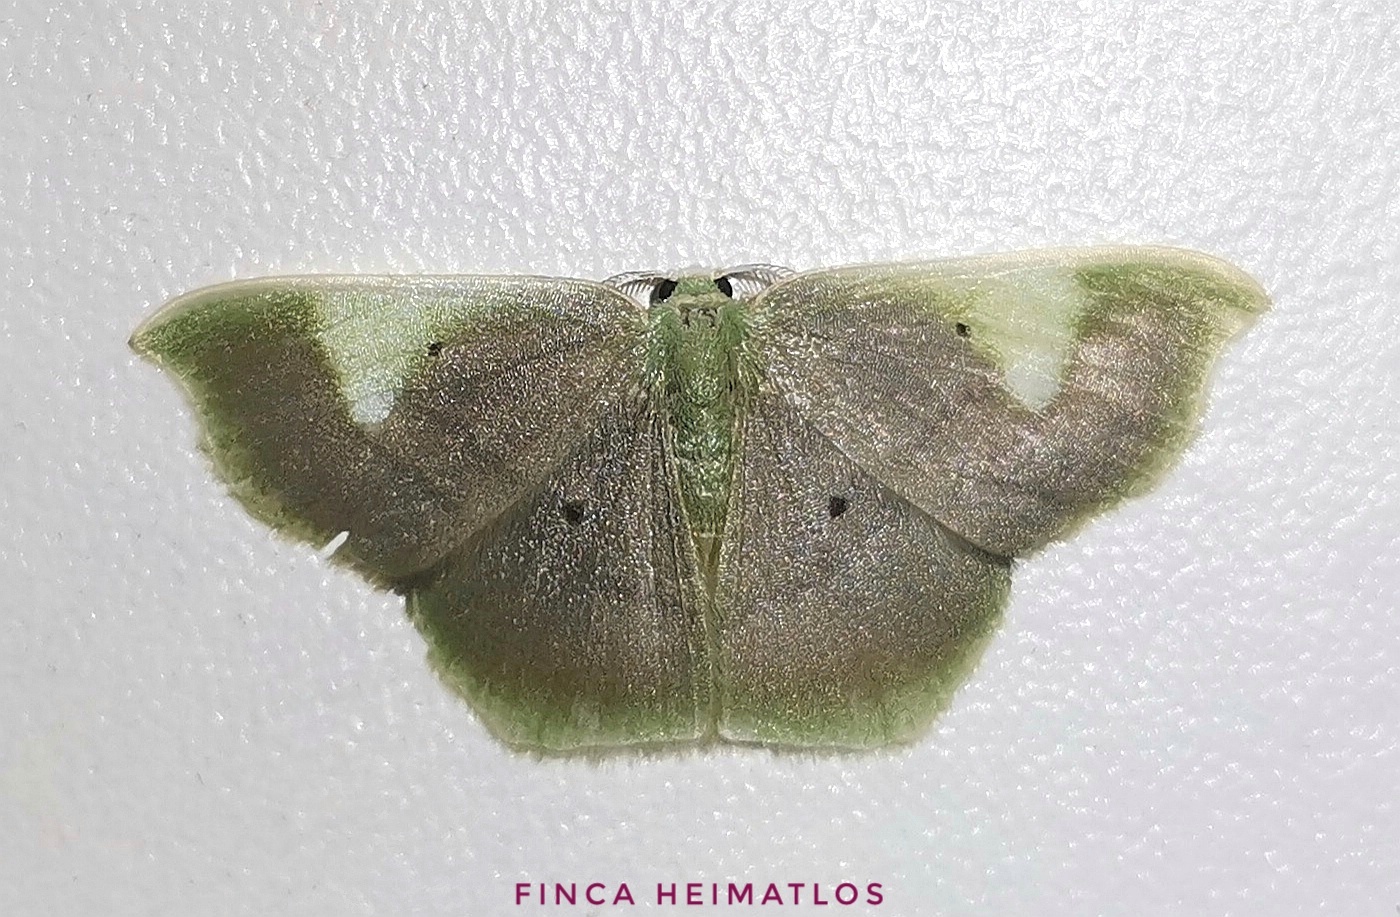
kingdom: Animalia
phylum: Arthropoda
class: Insecta
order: Lepidoptera
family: Geometridae
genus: Lissocentra
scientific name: Lissocentra
